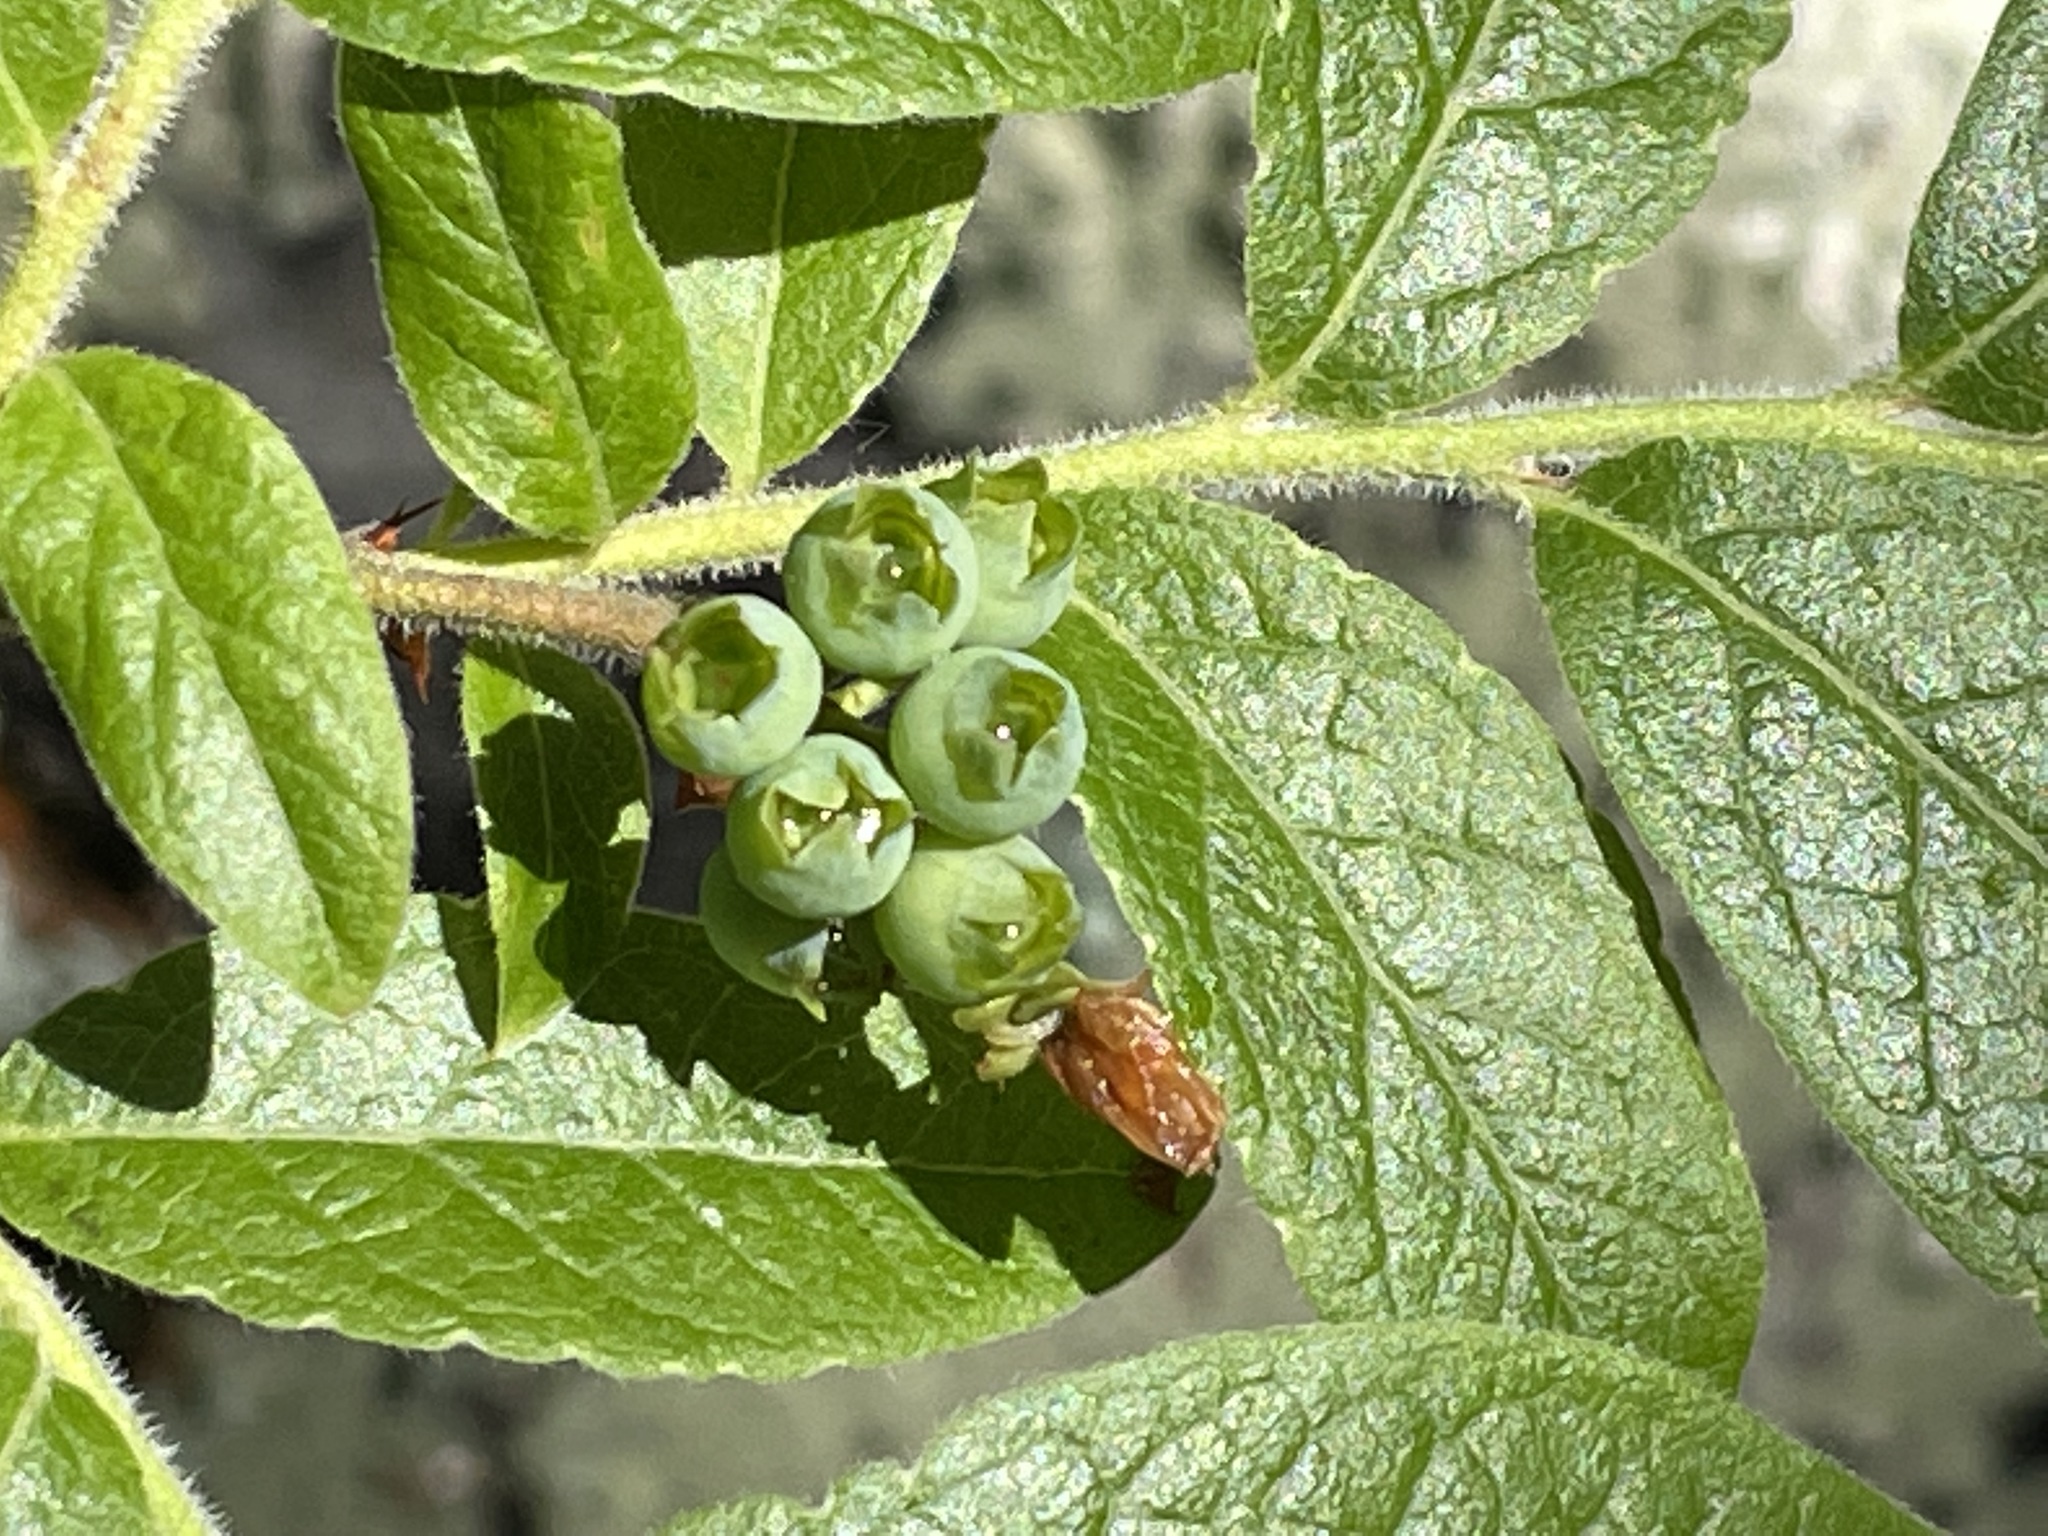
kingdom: Plantae
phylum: Tracheophyta
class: Magnoliopsida
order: Ericales
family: Ericaceae
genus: Vaccinium
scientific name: Vaccinium myrtilloides
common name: Canada blueberry
